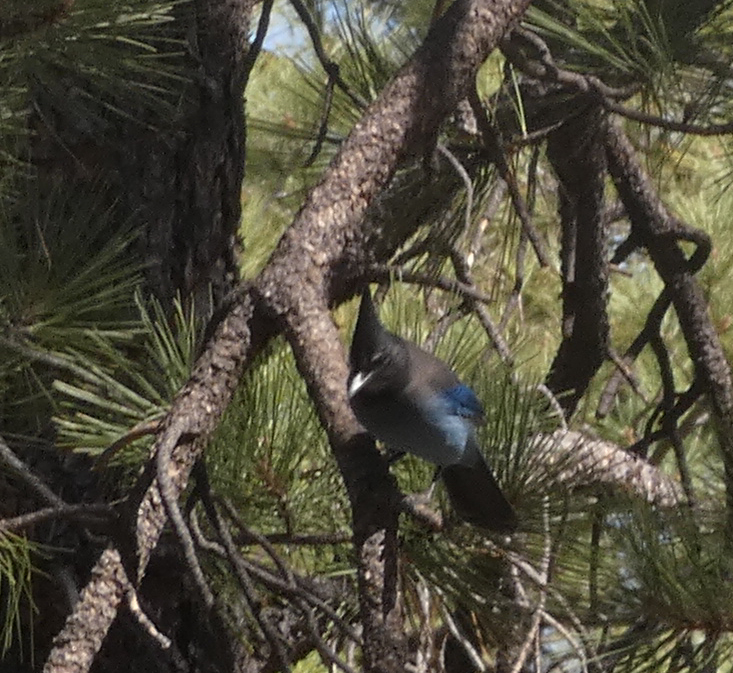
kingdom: Animalia
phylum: Chordata
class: Aves
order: Passeriformes
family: Corvidae
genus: Cyanocitta
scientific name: Cyanocitta stelleri
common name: Steller's jay
